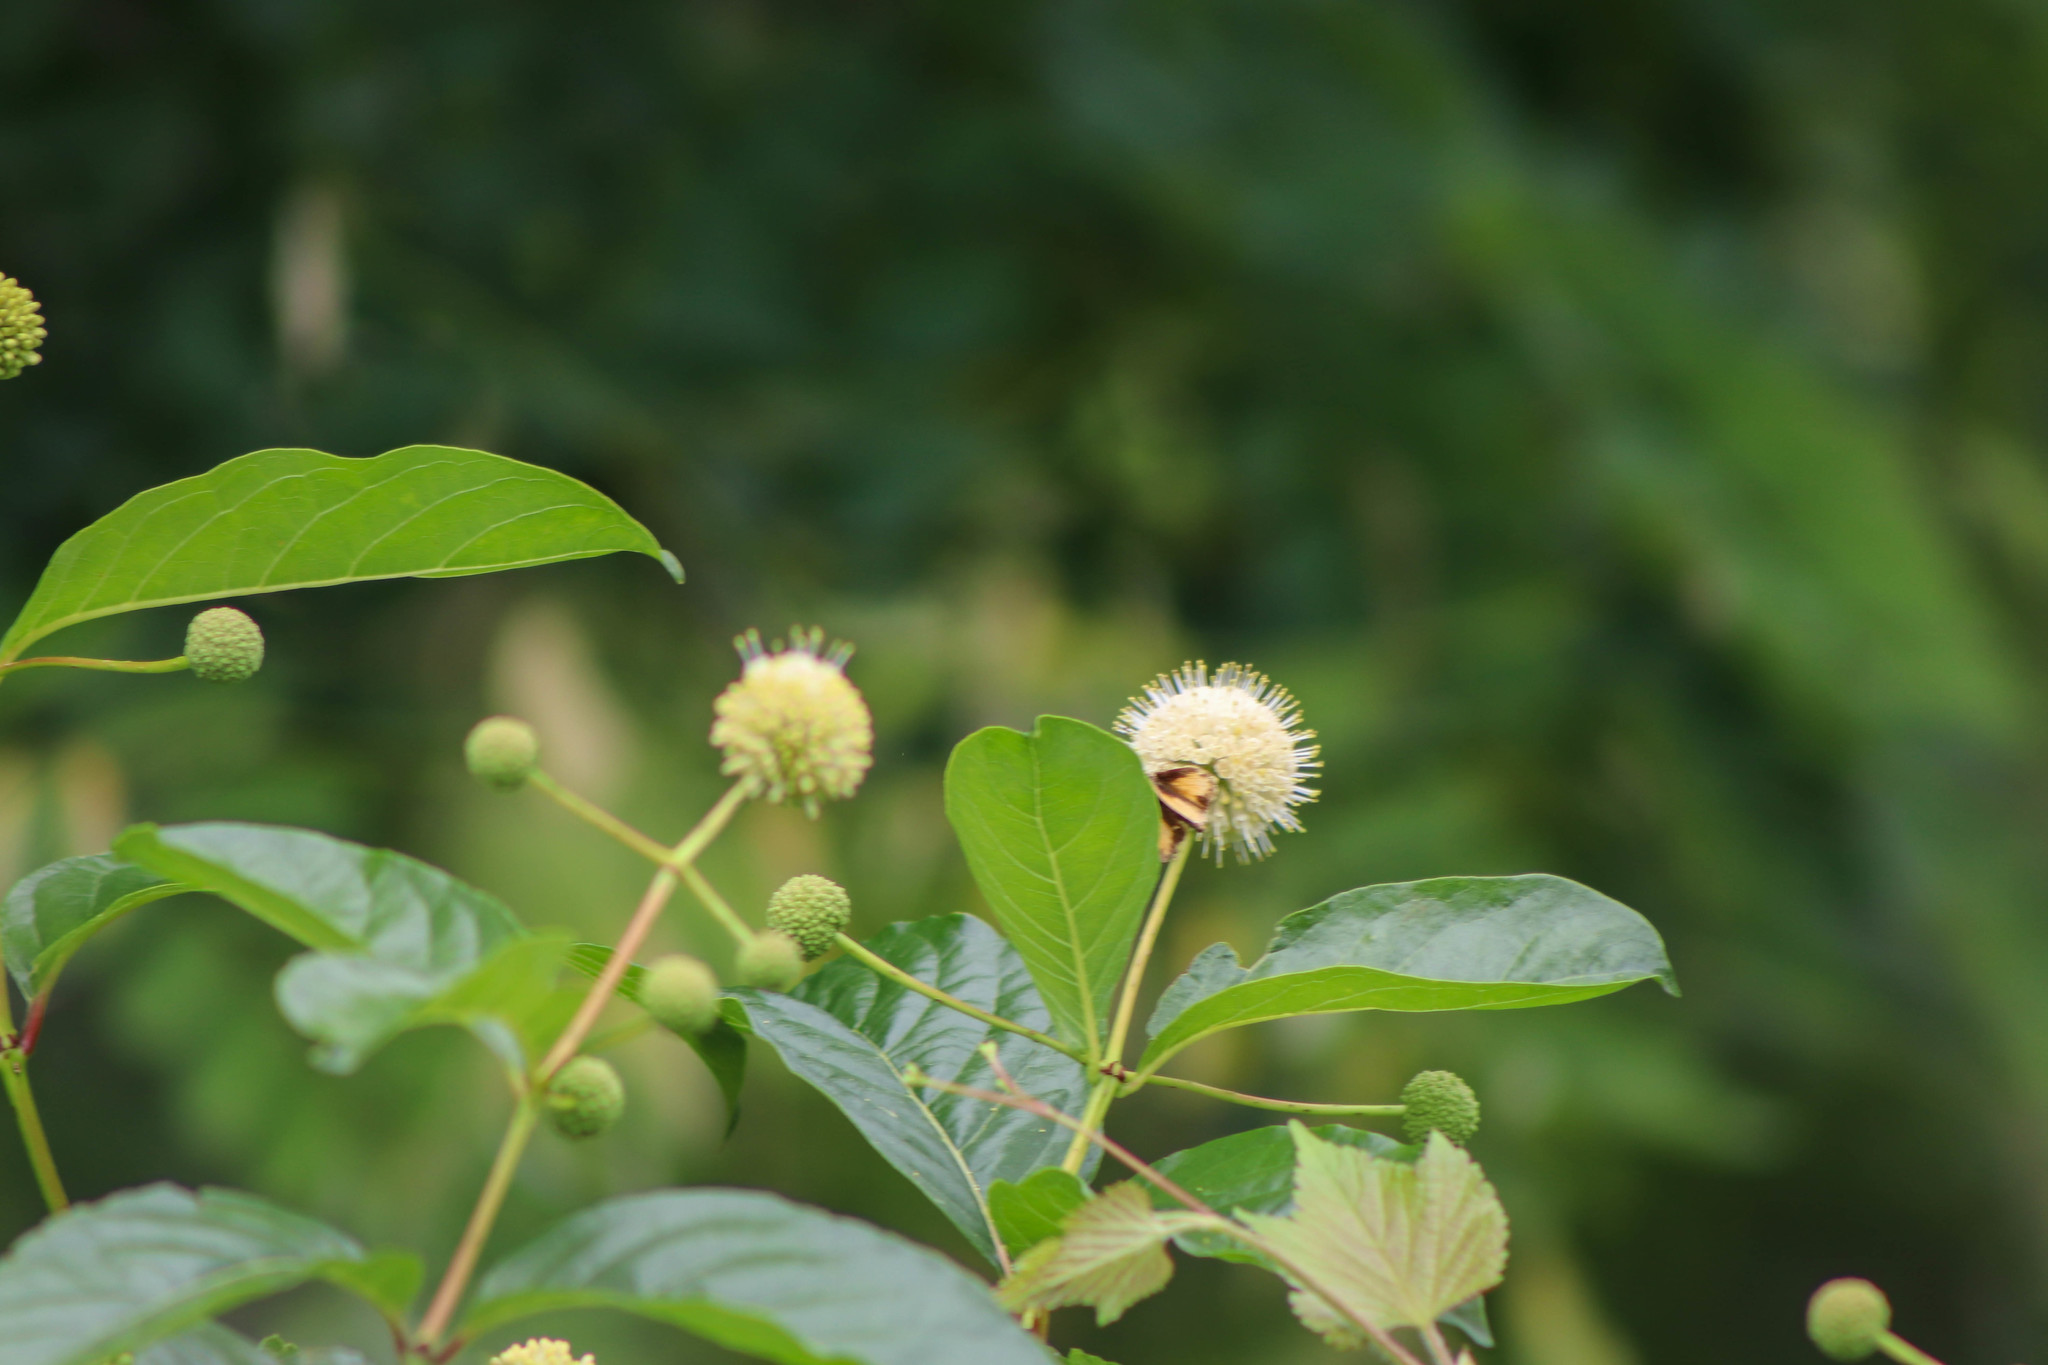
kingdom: Plantae
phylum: Tracheophyta
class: Magnoliopsida
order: Gentianales
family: Rubiaceae
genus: Cephalanthus
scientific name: Cephalanthus occidentalis
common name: Button-willow
